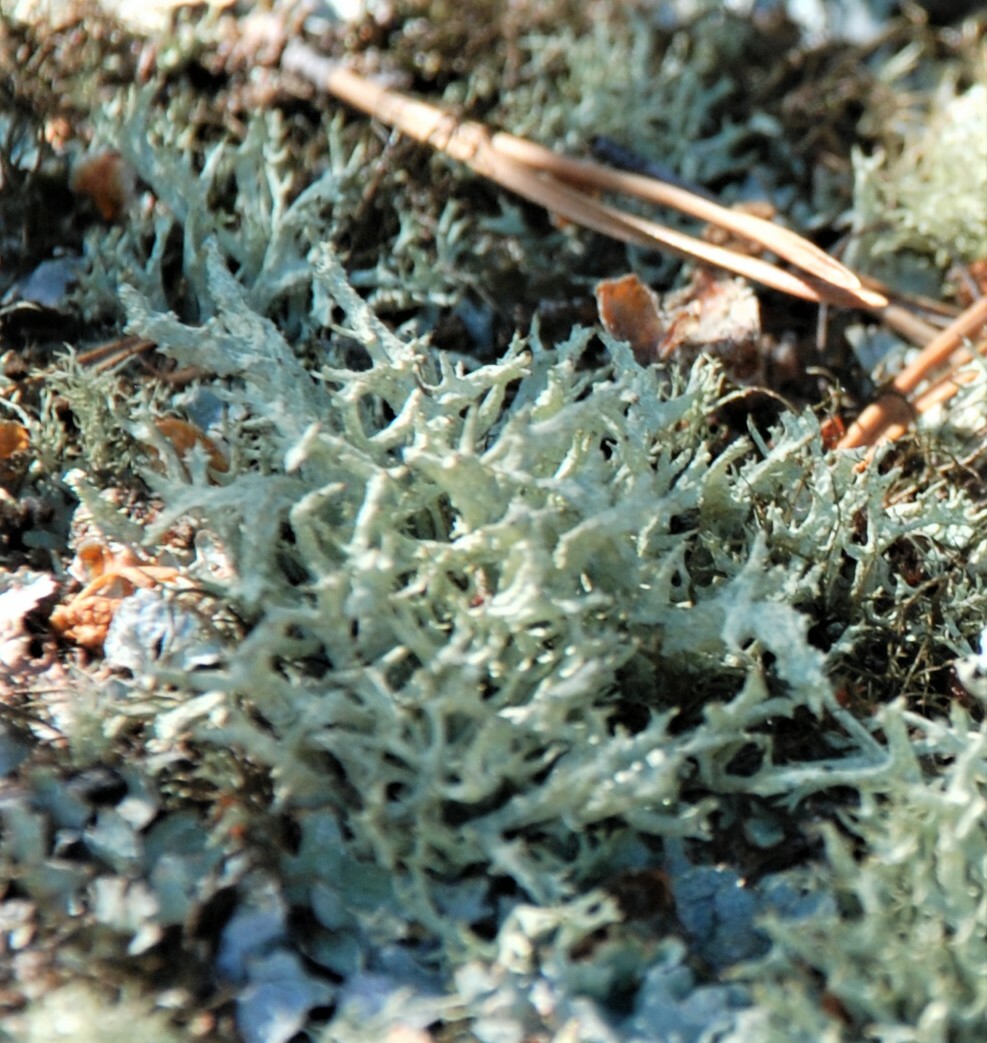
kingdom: Fungi
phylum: Ascomycota
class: Lecanoromycetes
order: Lecanorales
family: Parmeliaceae
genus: Evernia
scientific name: Evernia mesomorpha
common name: Boreal oak moss lichen
